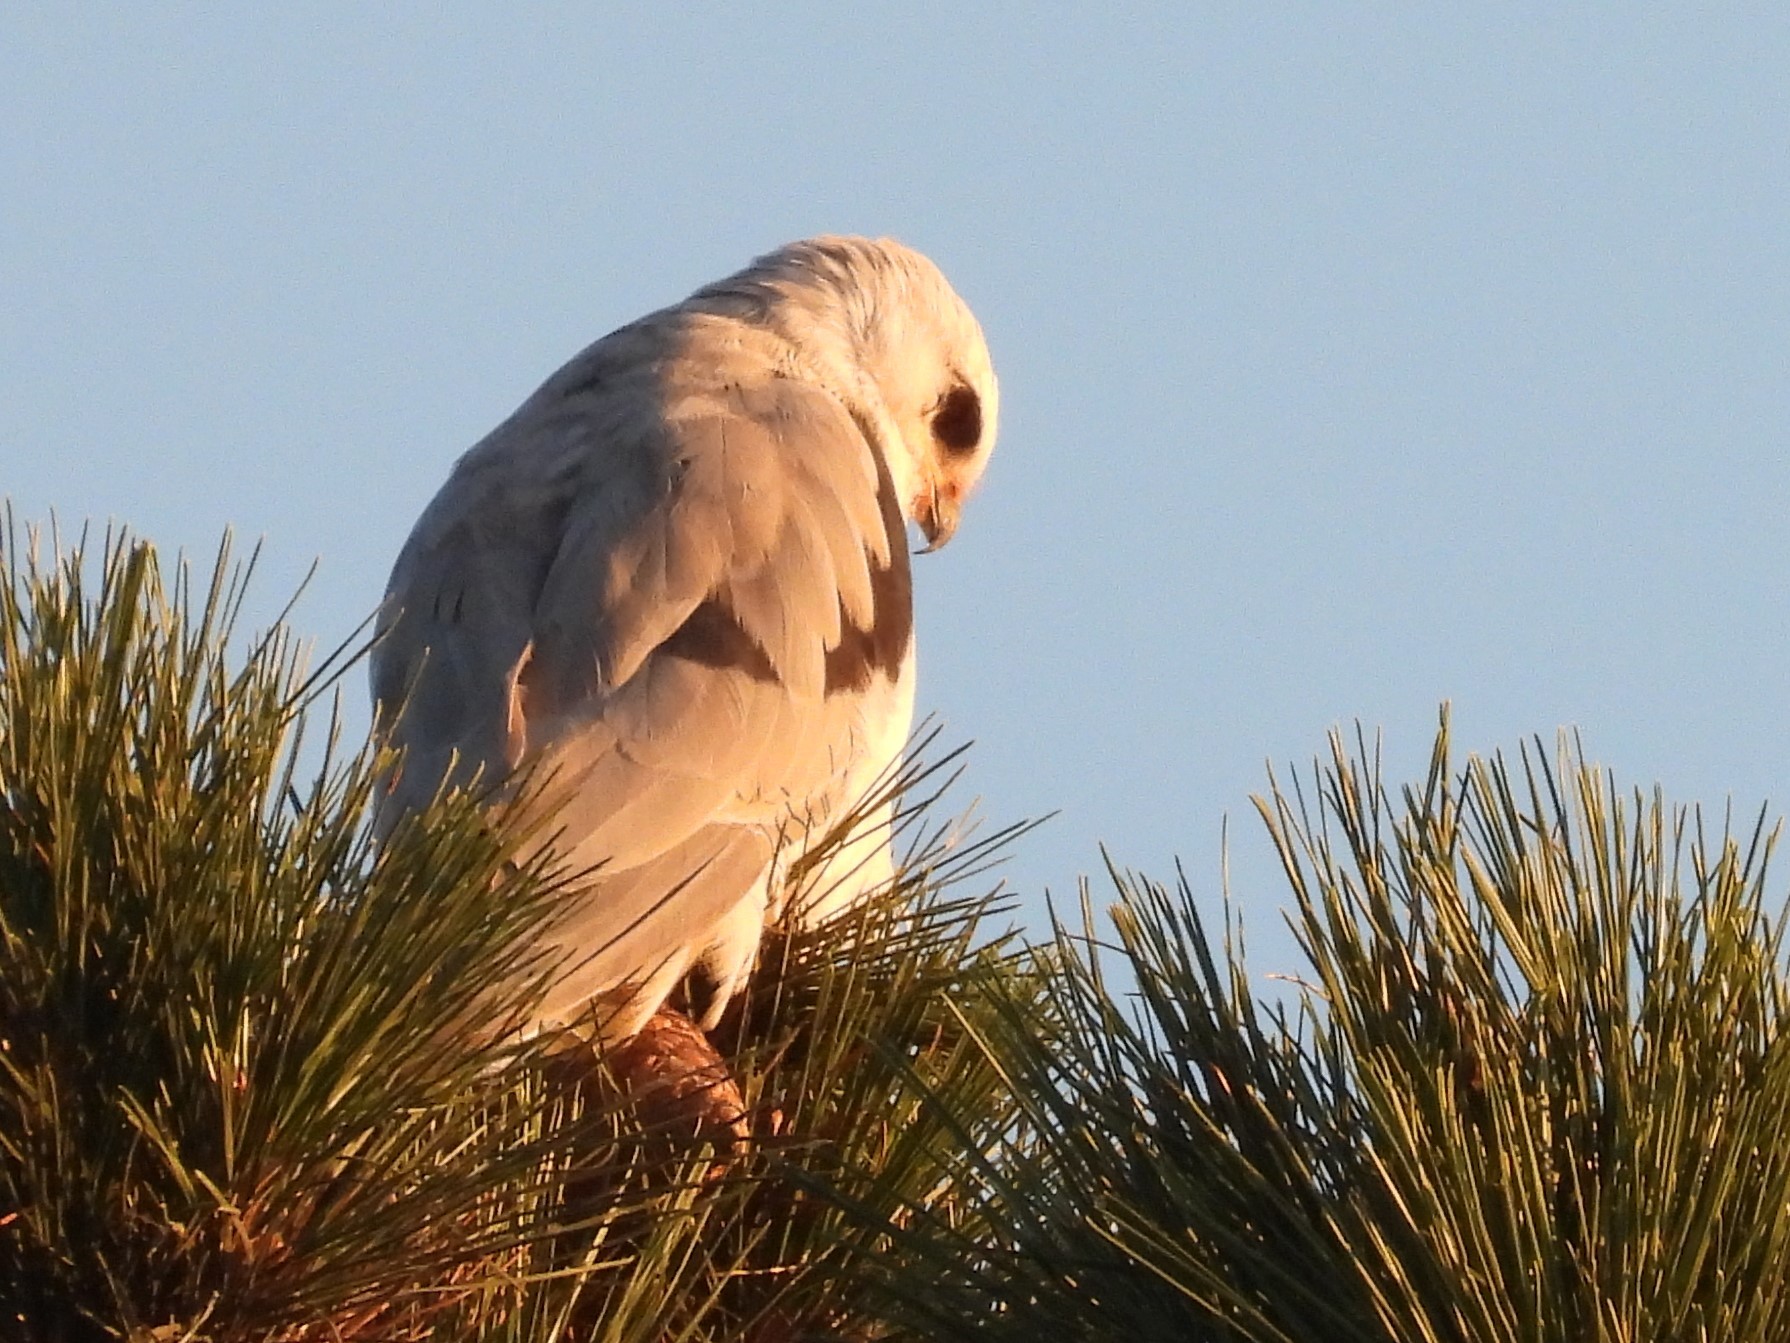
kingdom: Animalia
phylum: Chordata
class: Aves
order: Accipitriformes
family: Accipitridae
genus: Elanus
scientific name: Elanus leucurus
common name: White-tailed kite
